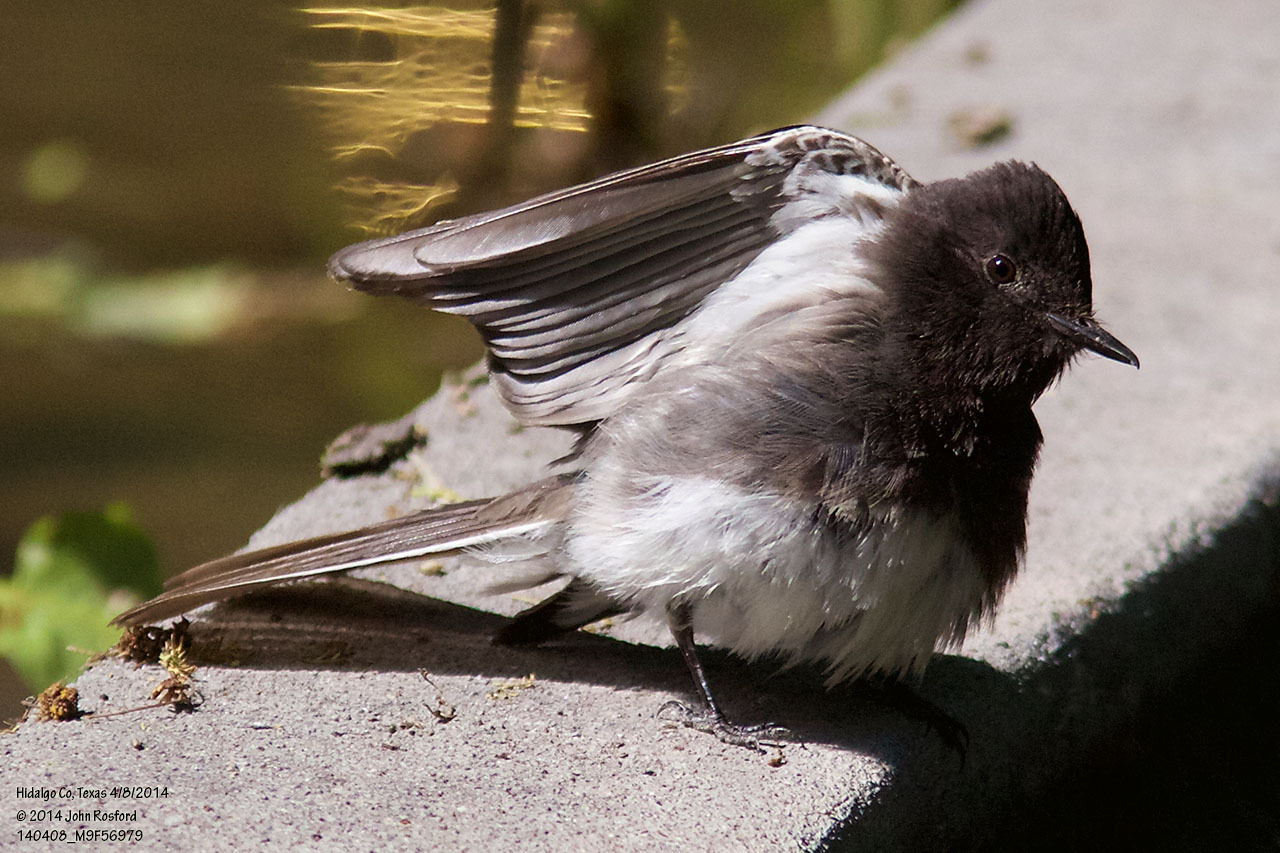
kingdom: Animalia
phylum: Chordata
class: Aves
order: Passeriformes
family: Tyrannidae
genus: Sayornis
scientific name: Sayornis nigricans
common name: Black phoebe
